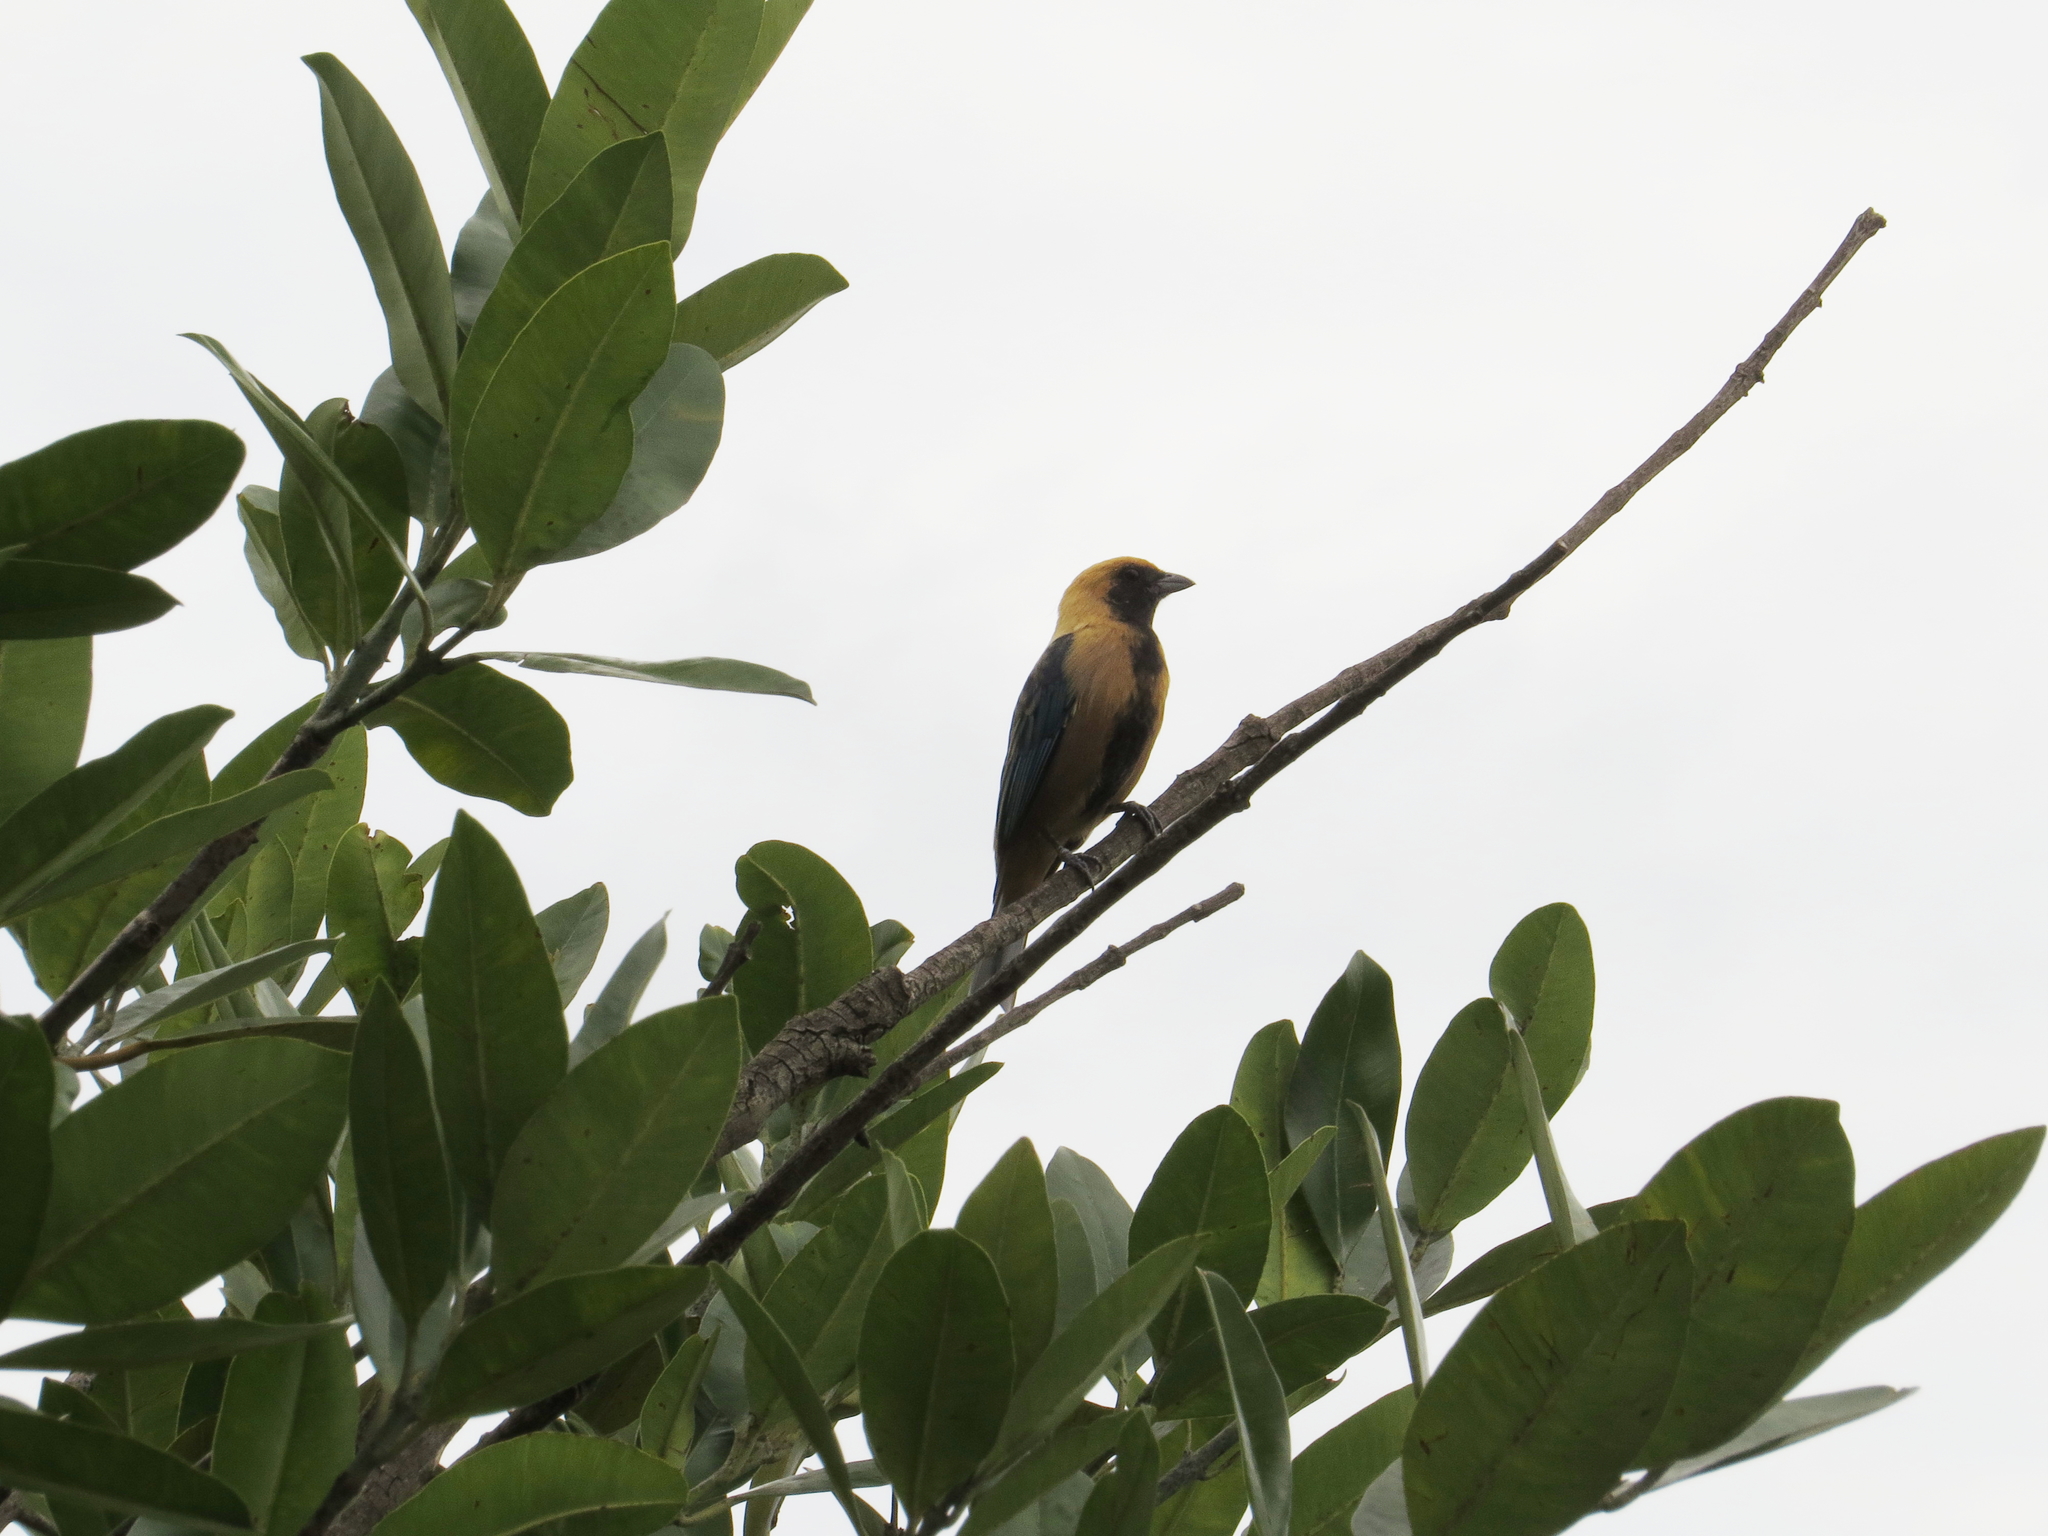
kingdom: Animalia
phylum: Chordata
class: Aves
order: Passeriformes
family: Thraupidae
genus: Stilpnia
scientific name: Stilpnia cayana
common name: Burnished-buff tanager
